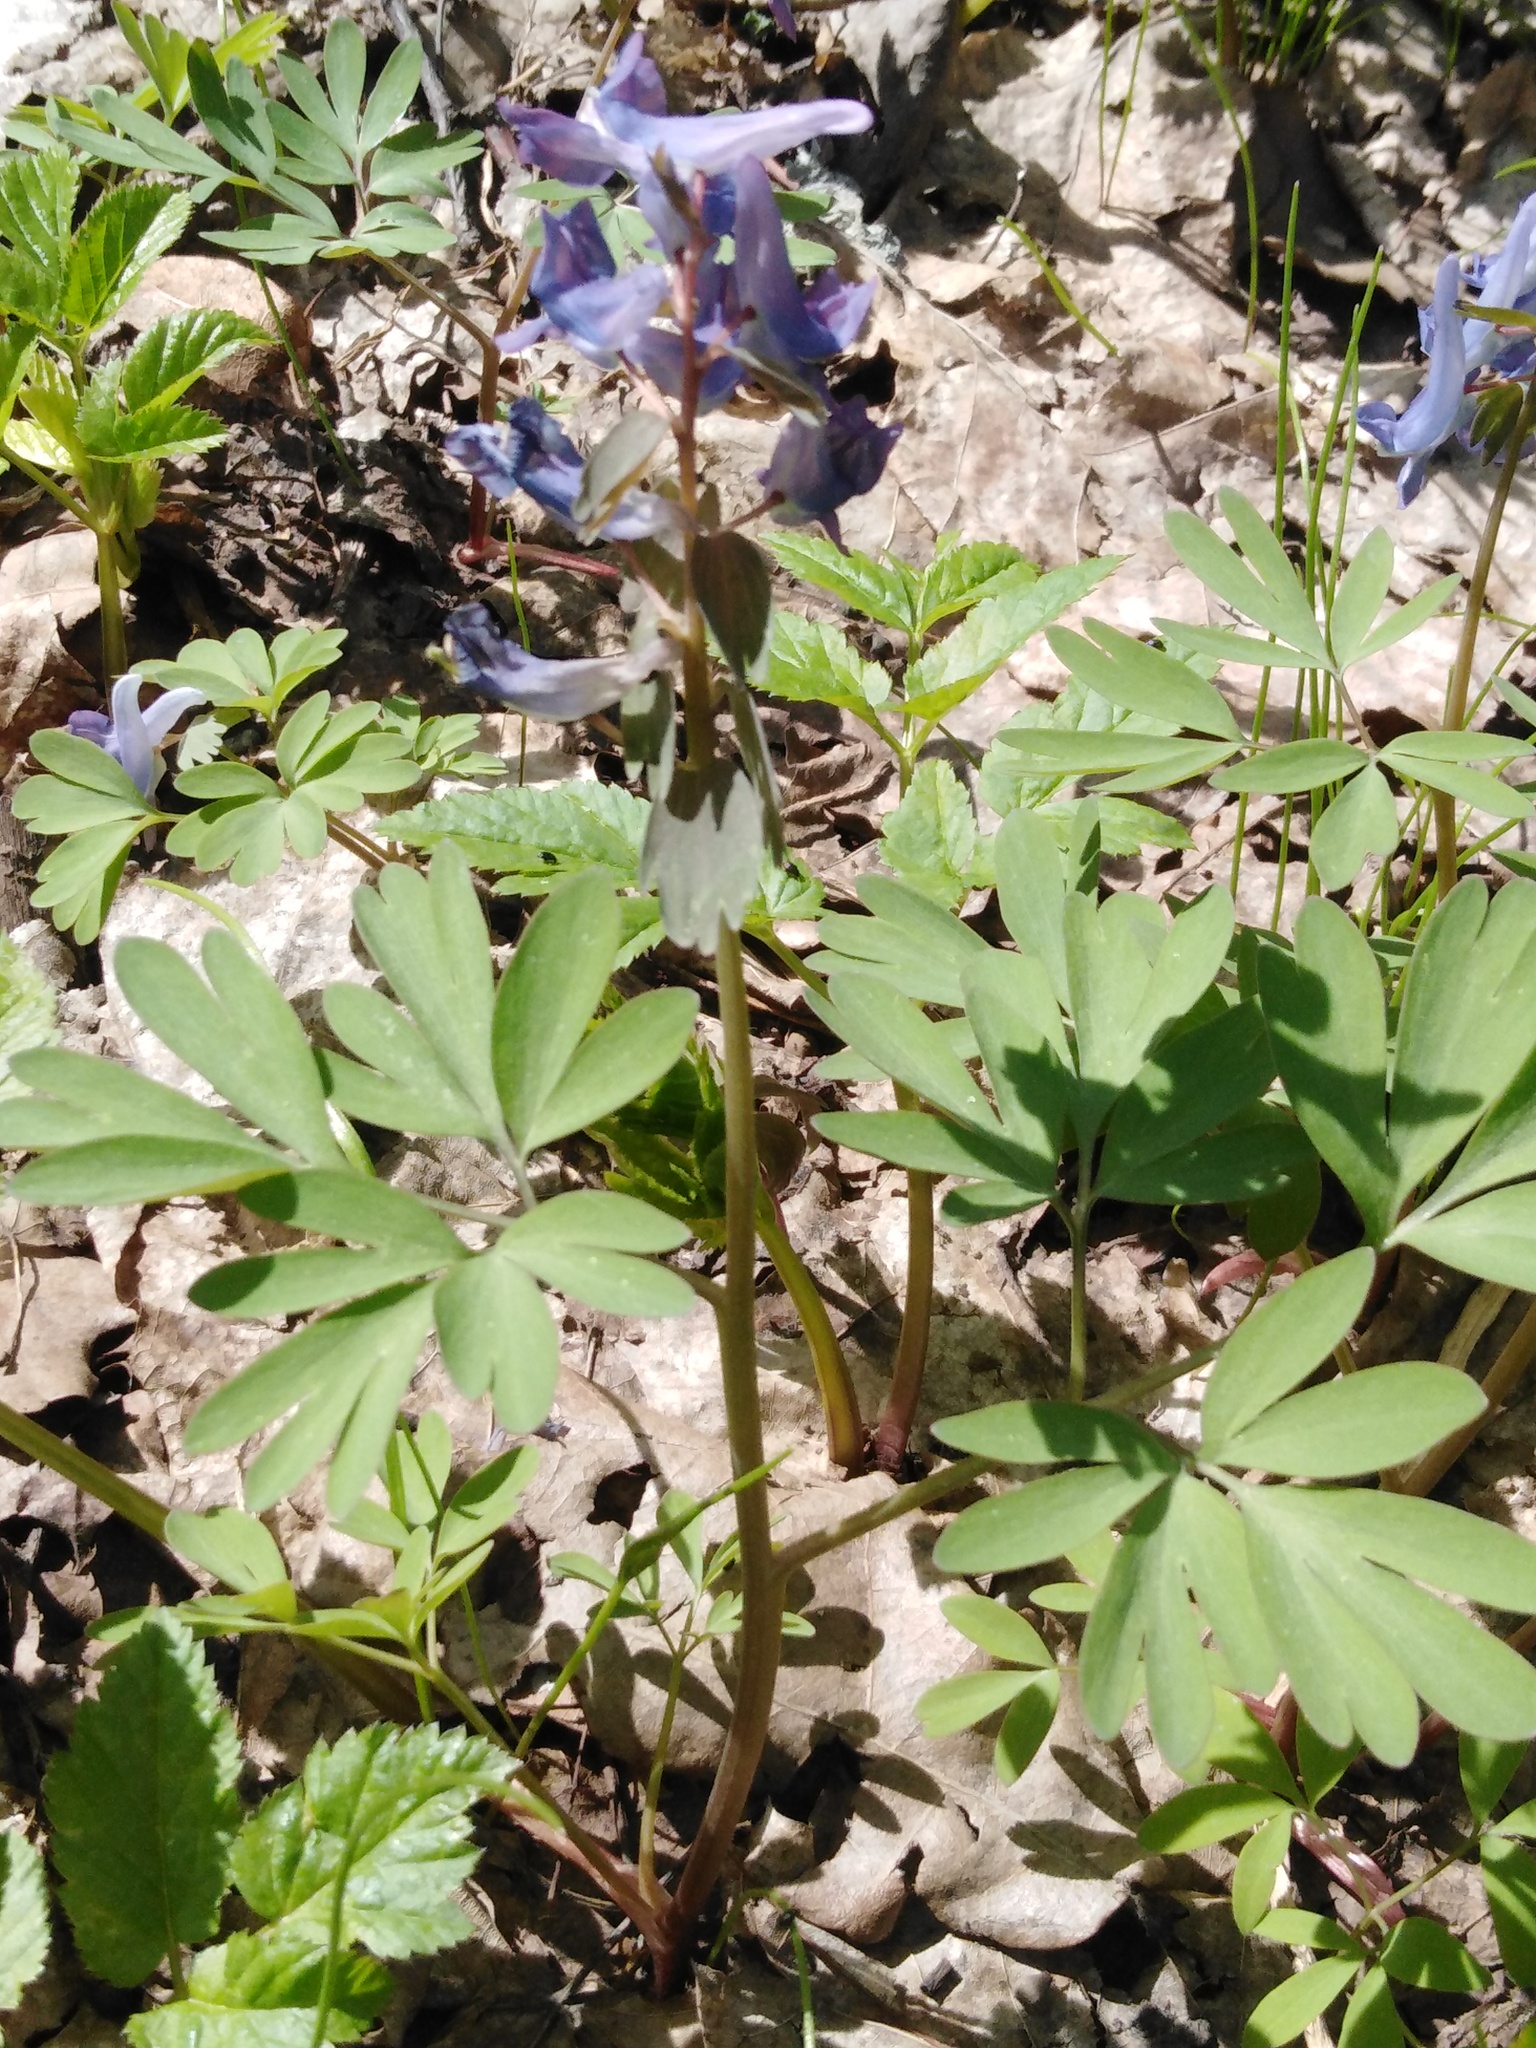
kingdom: Plantae
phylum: Tracheophyta
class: Magnoliopsida
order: Ranunculales
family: Papaveraceae
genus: Corydalis
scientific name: Corydalis solida
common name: Bird-in-a-bush
